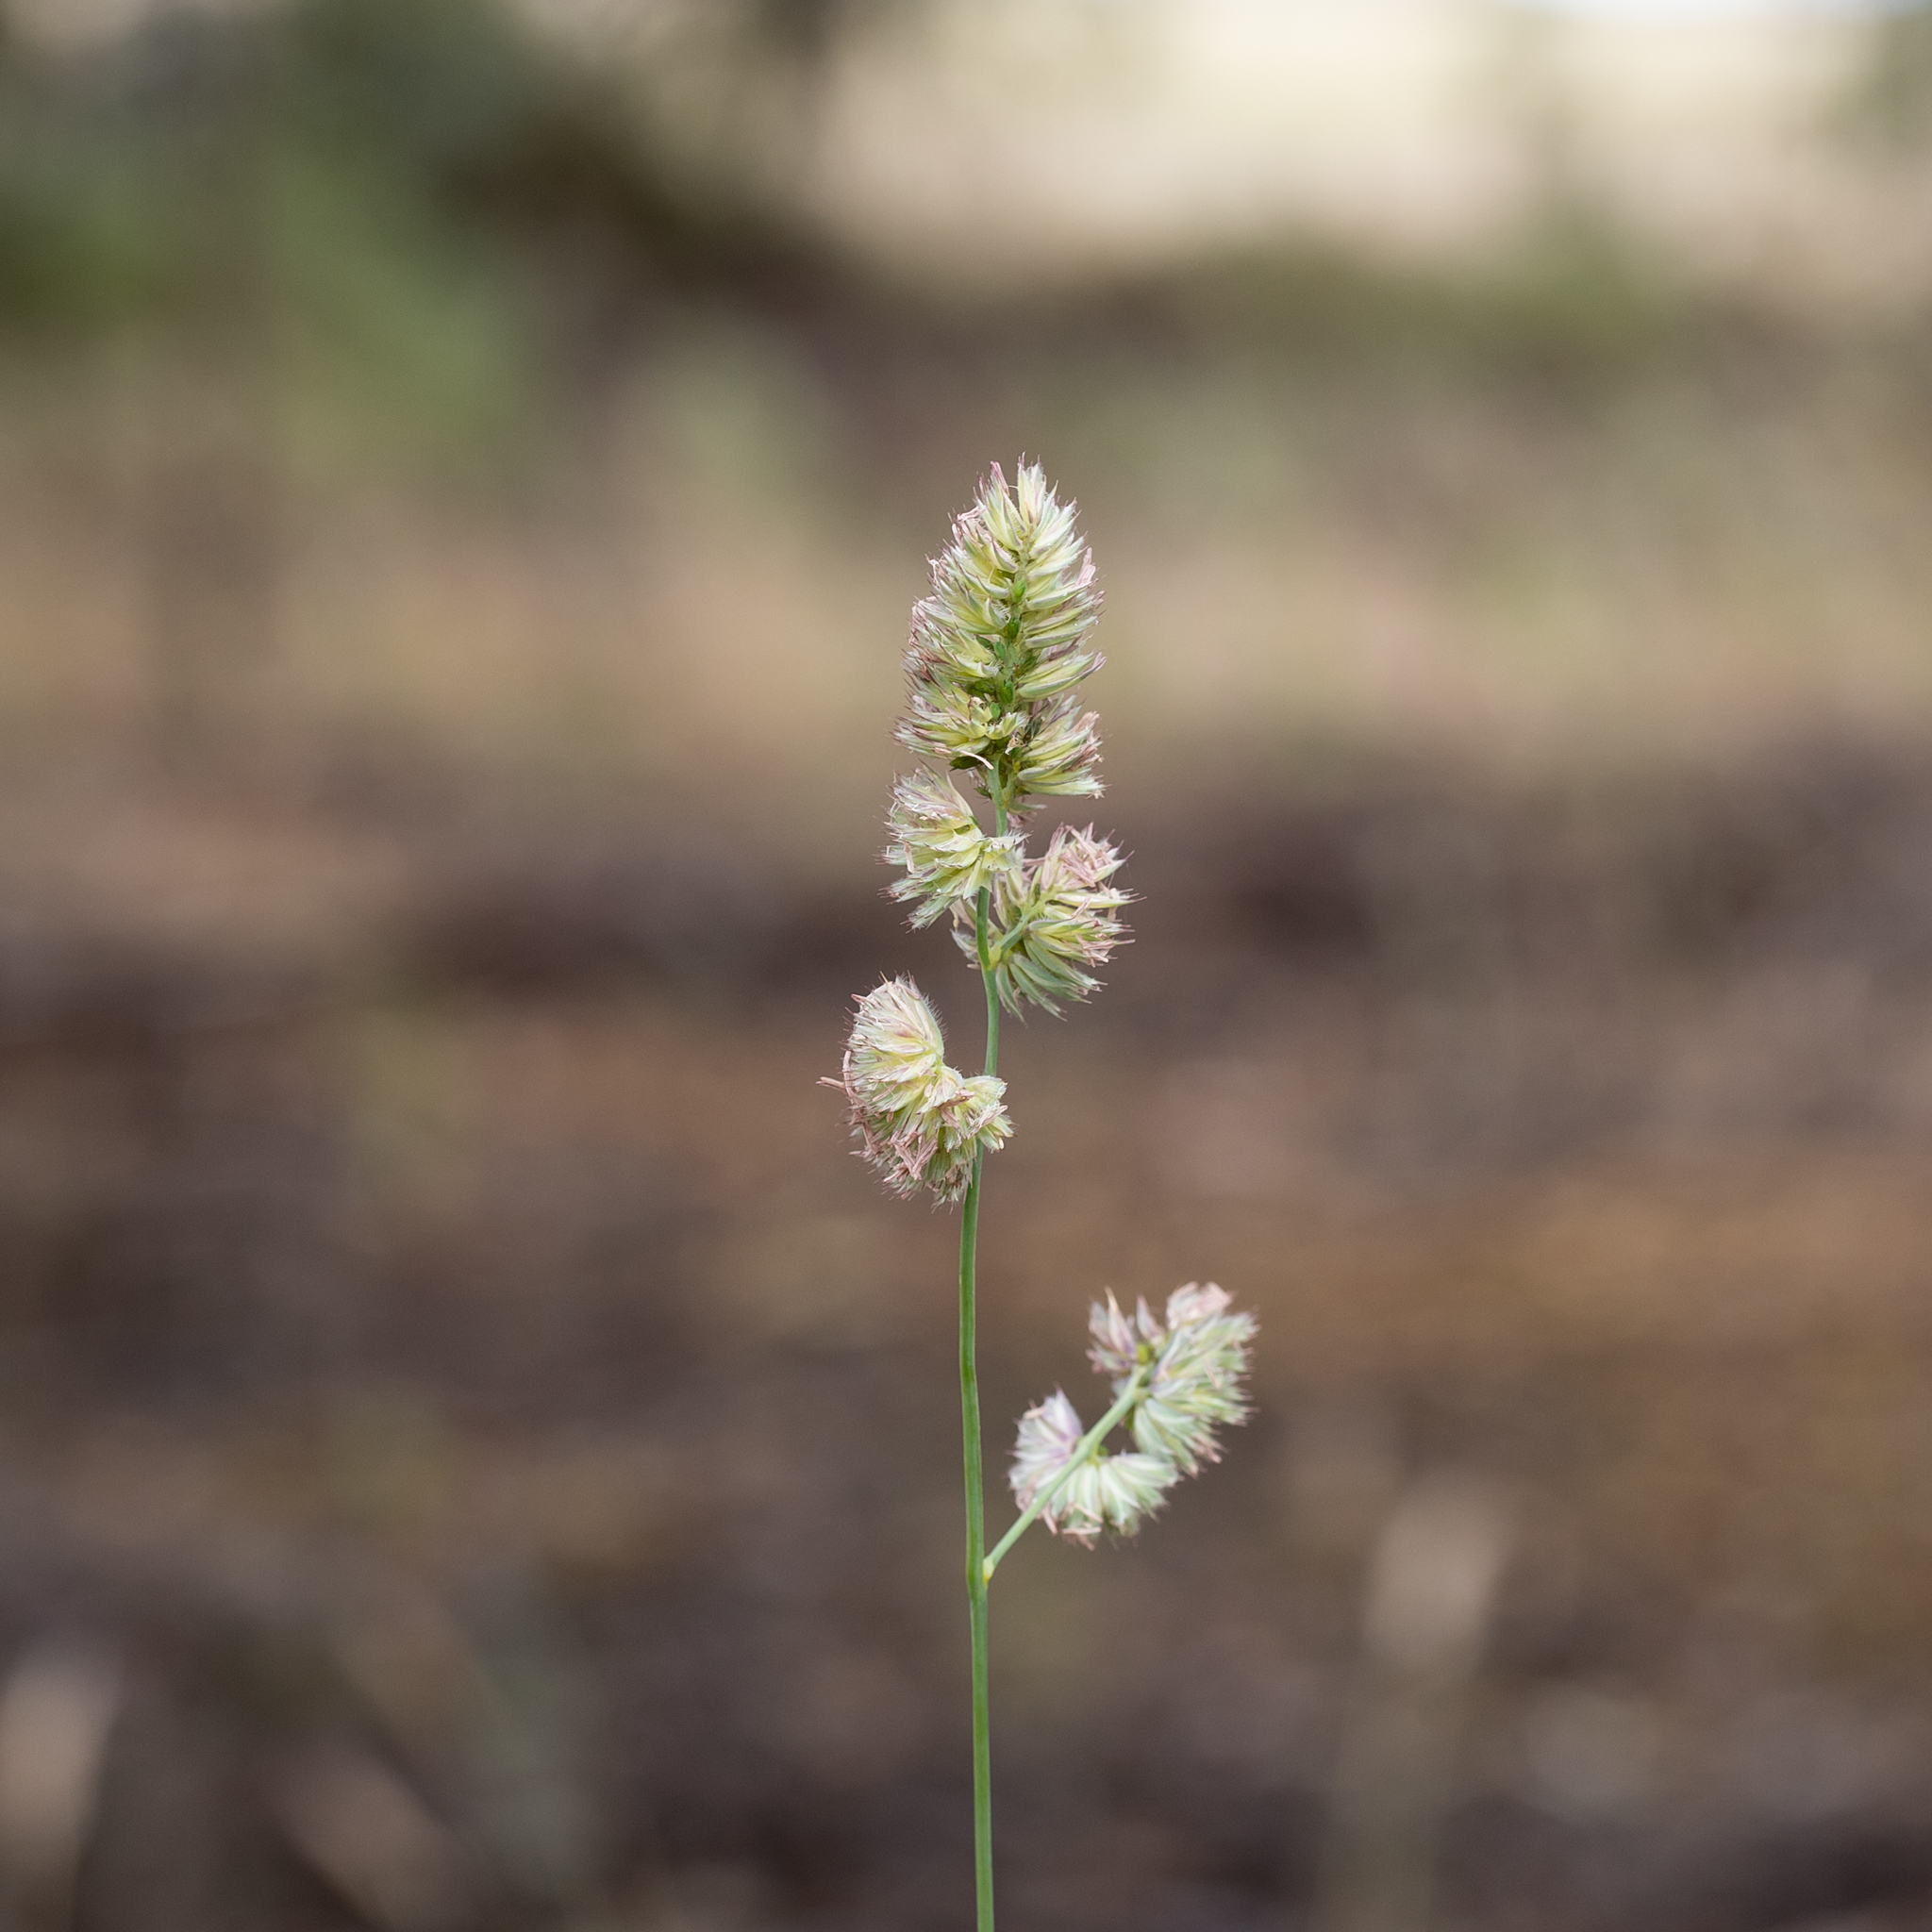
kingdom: Plantae
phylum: Tracheophyta
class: Liliopsida
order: Poales
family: Poaceae
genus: Dactylis
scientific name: Dactylis glomerata
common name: Orchardgrass
